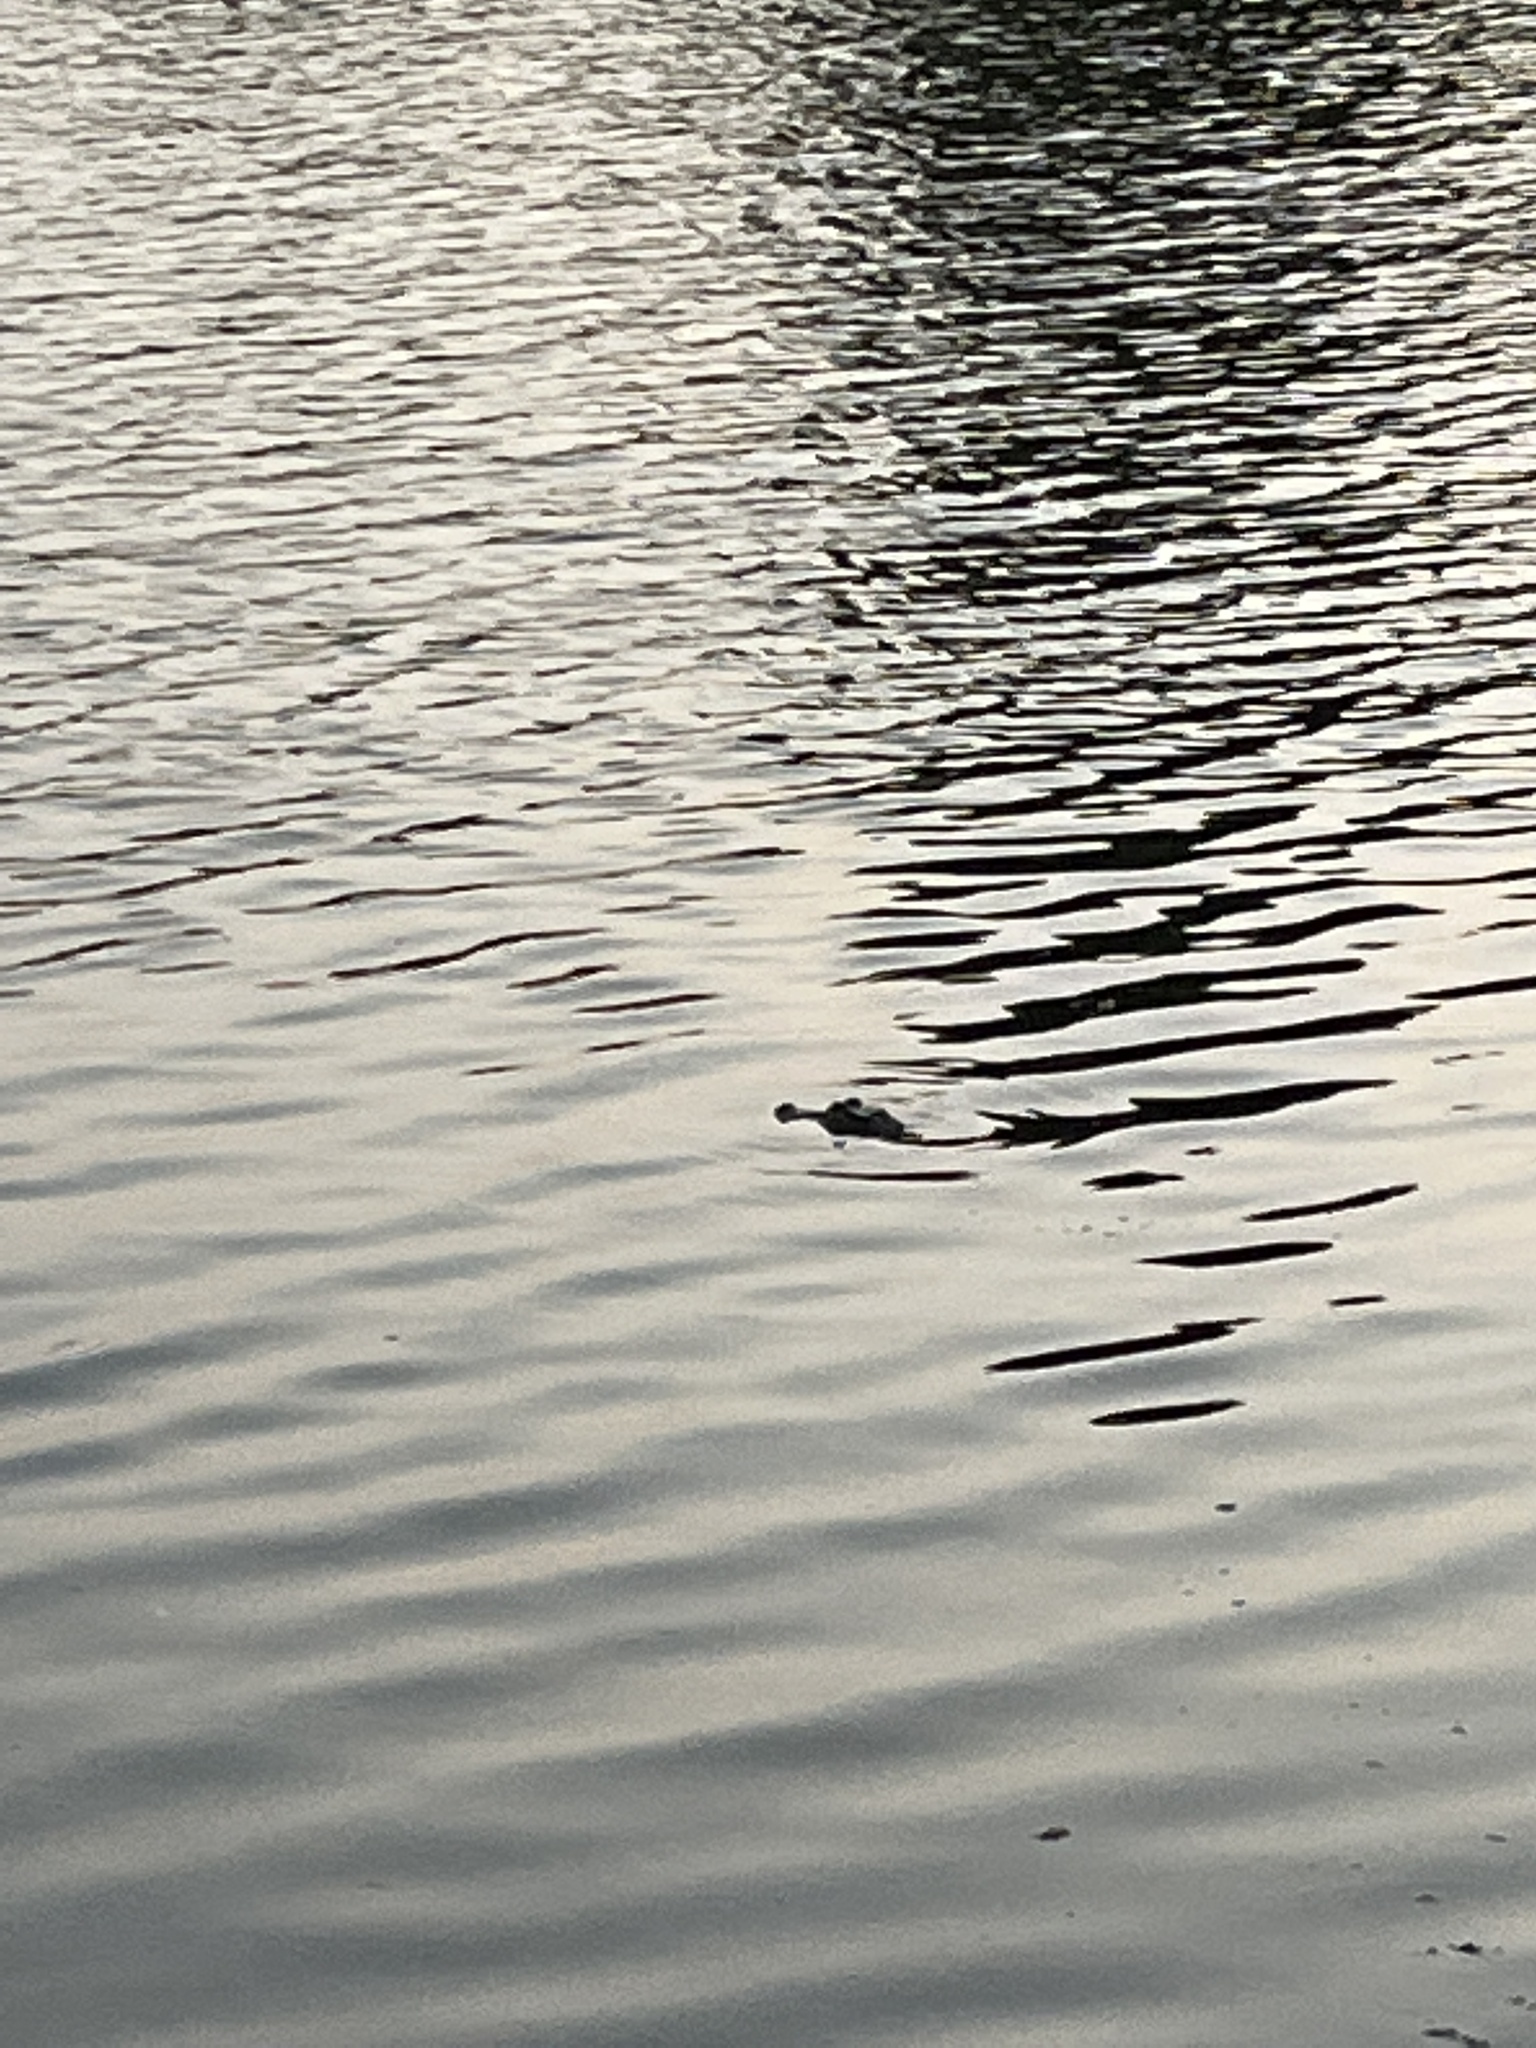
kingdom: Animalia
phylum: Chordata
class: Crocodylia
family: Alligatoridae
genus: Alligator
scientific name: Alligator mississippiensis
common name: American alligator
